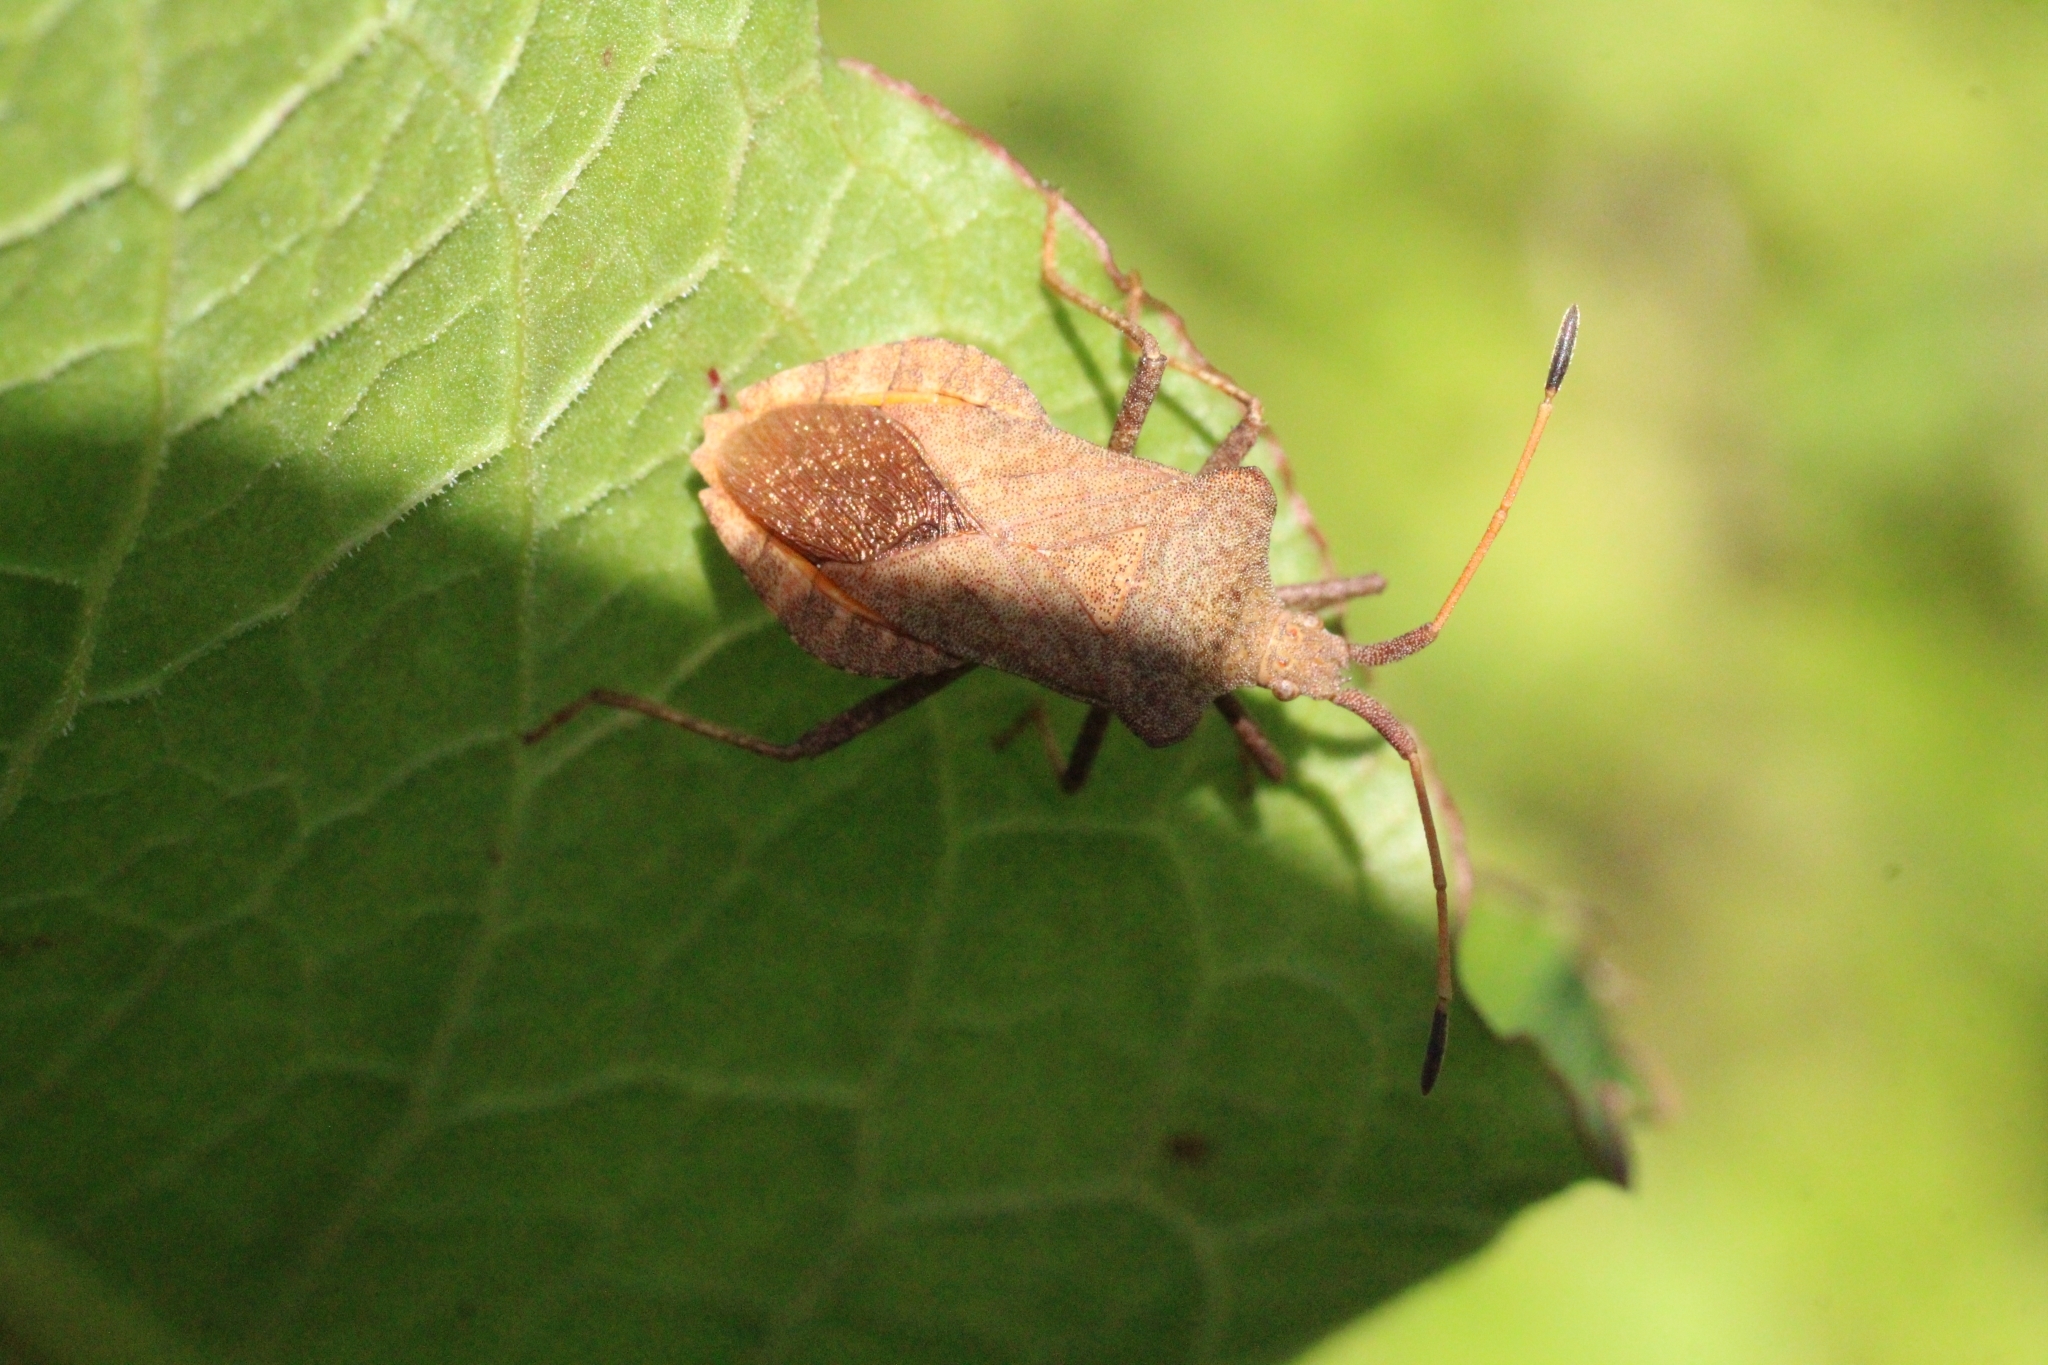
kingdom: Animalia
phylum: Arthropoda
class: Insecta
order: Hemiptera
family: Coreidae
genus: Coreus
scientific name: Coreus marginatus
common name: Dock bug
